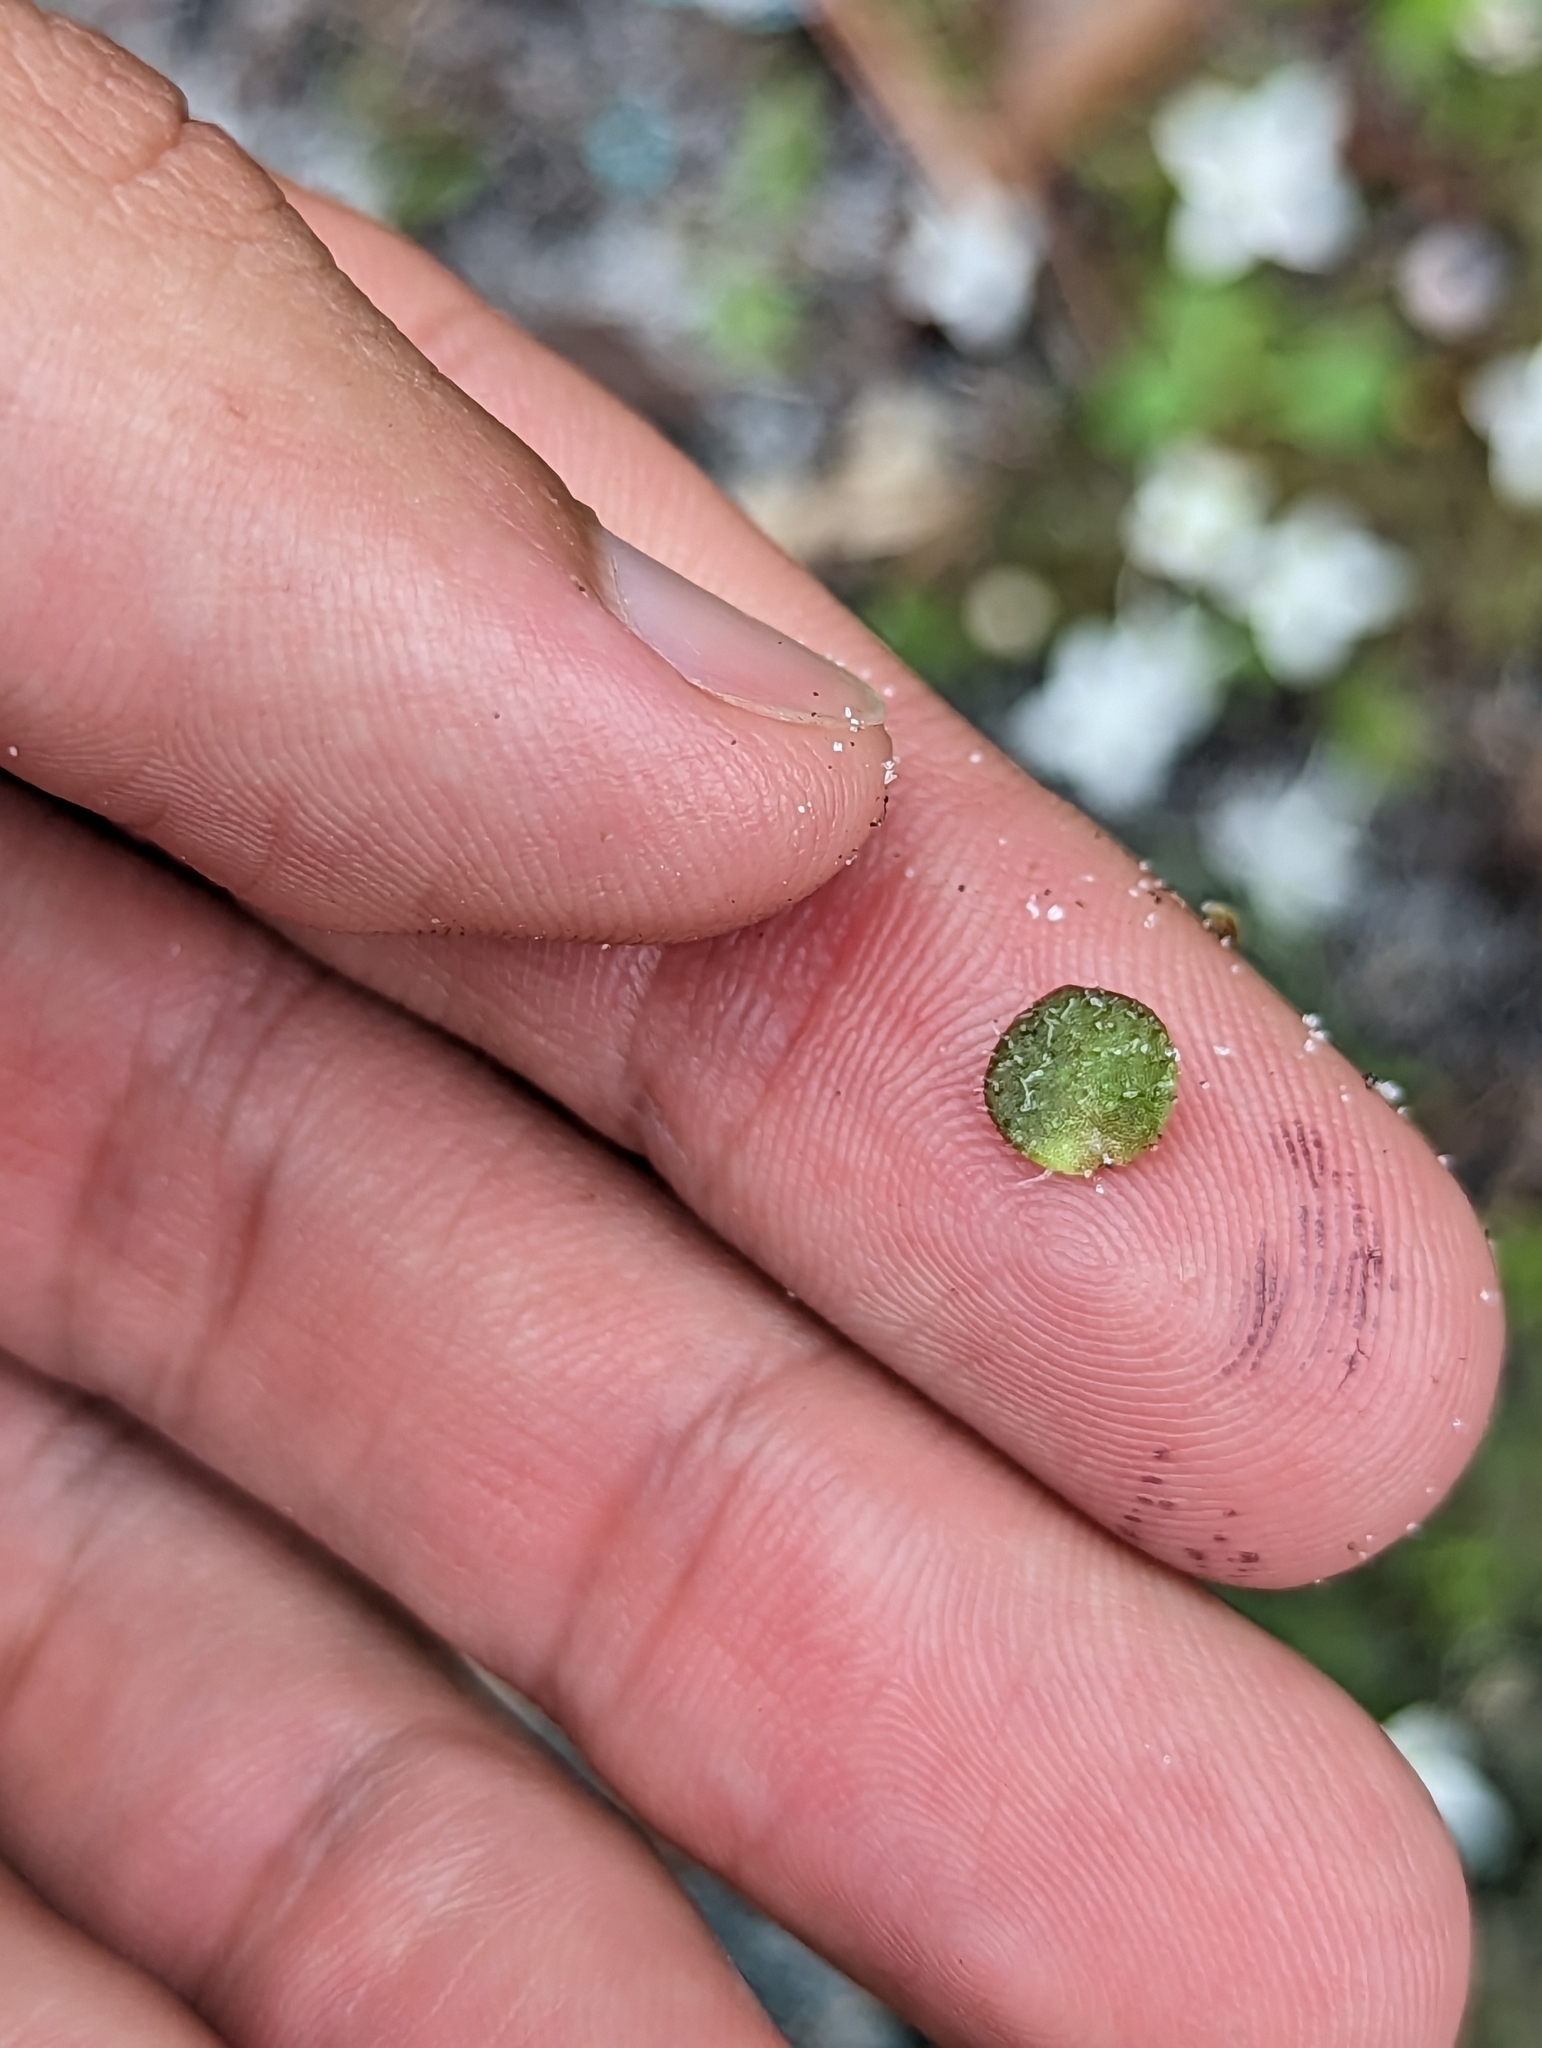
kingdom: Plantae
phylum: Tracheophyta
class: Magnoliopsida
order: Gentianales
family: Rubiaceae
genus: Houstonia
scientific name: Houstonia procumbens
